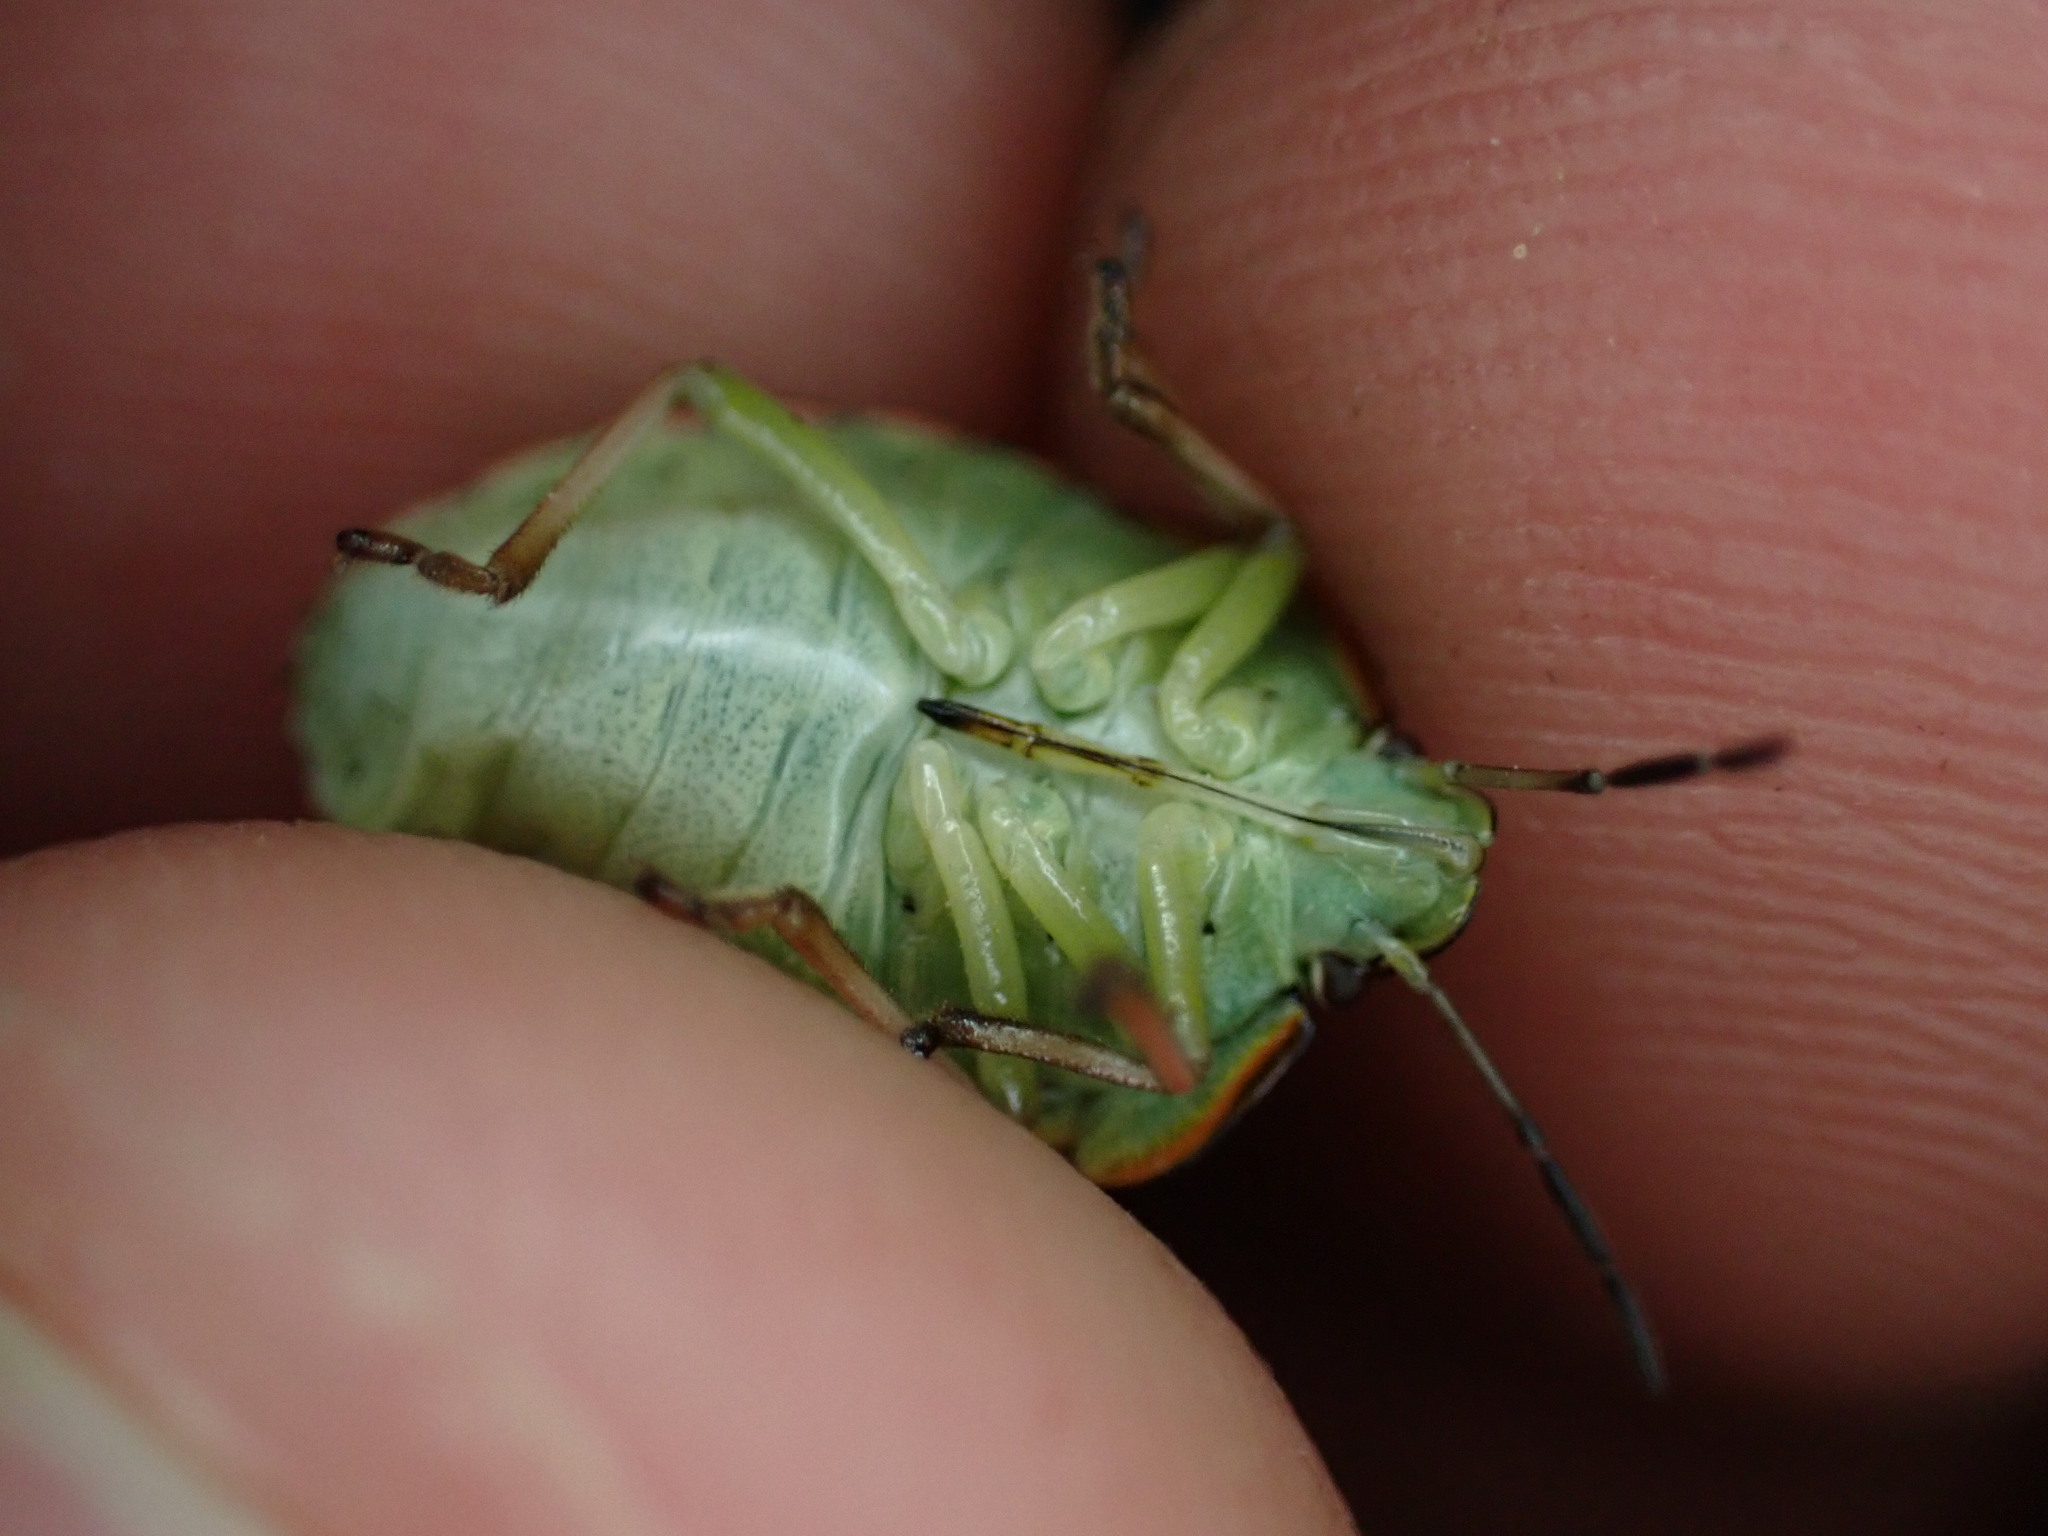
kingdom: Animalia
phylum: Arthropoda
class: Insecta
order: Hemiptera
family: Pentatomidae
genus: Nezara
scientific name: Nezara viridula
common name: Southern green stink bug
